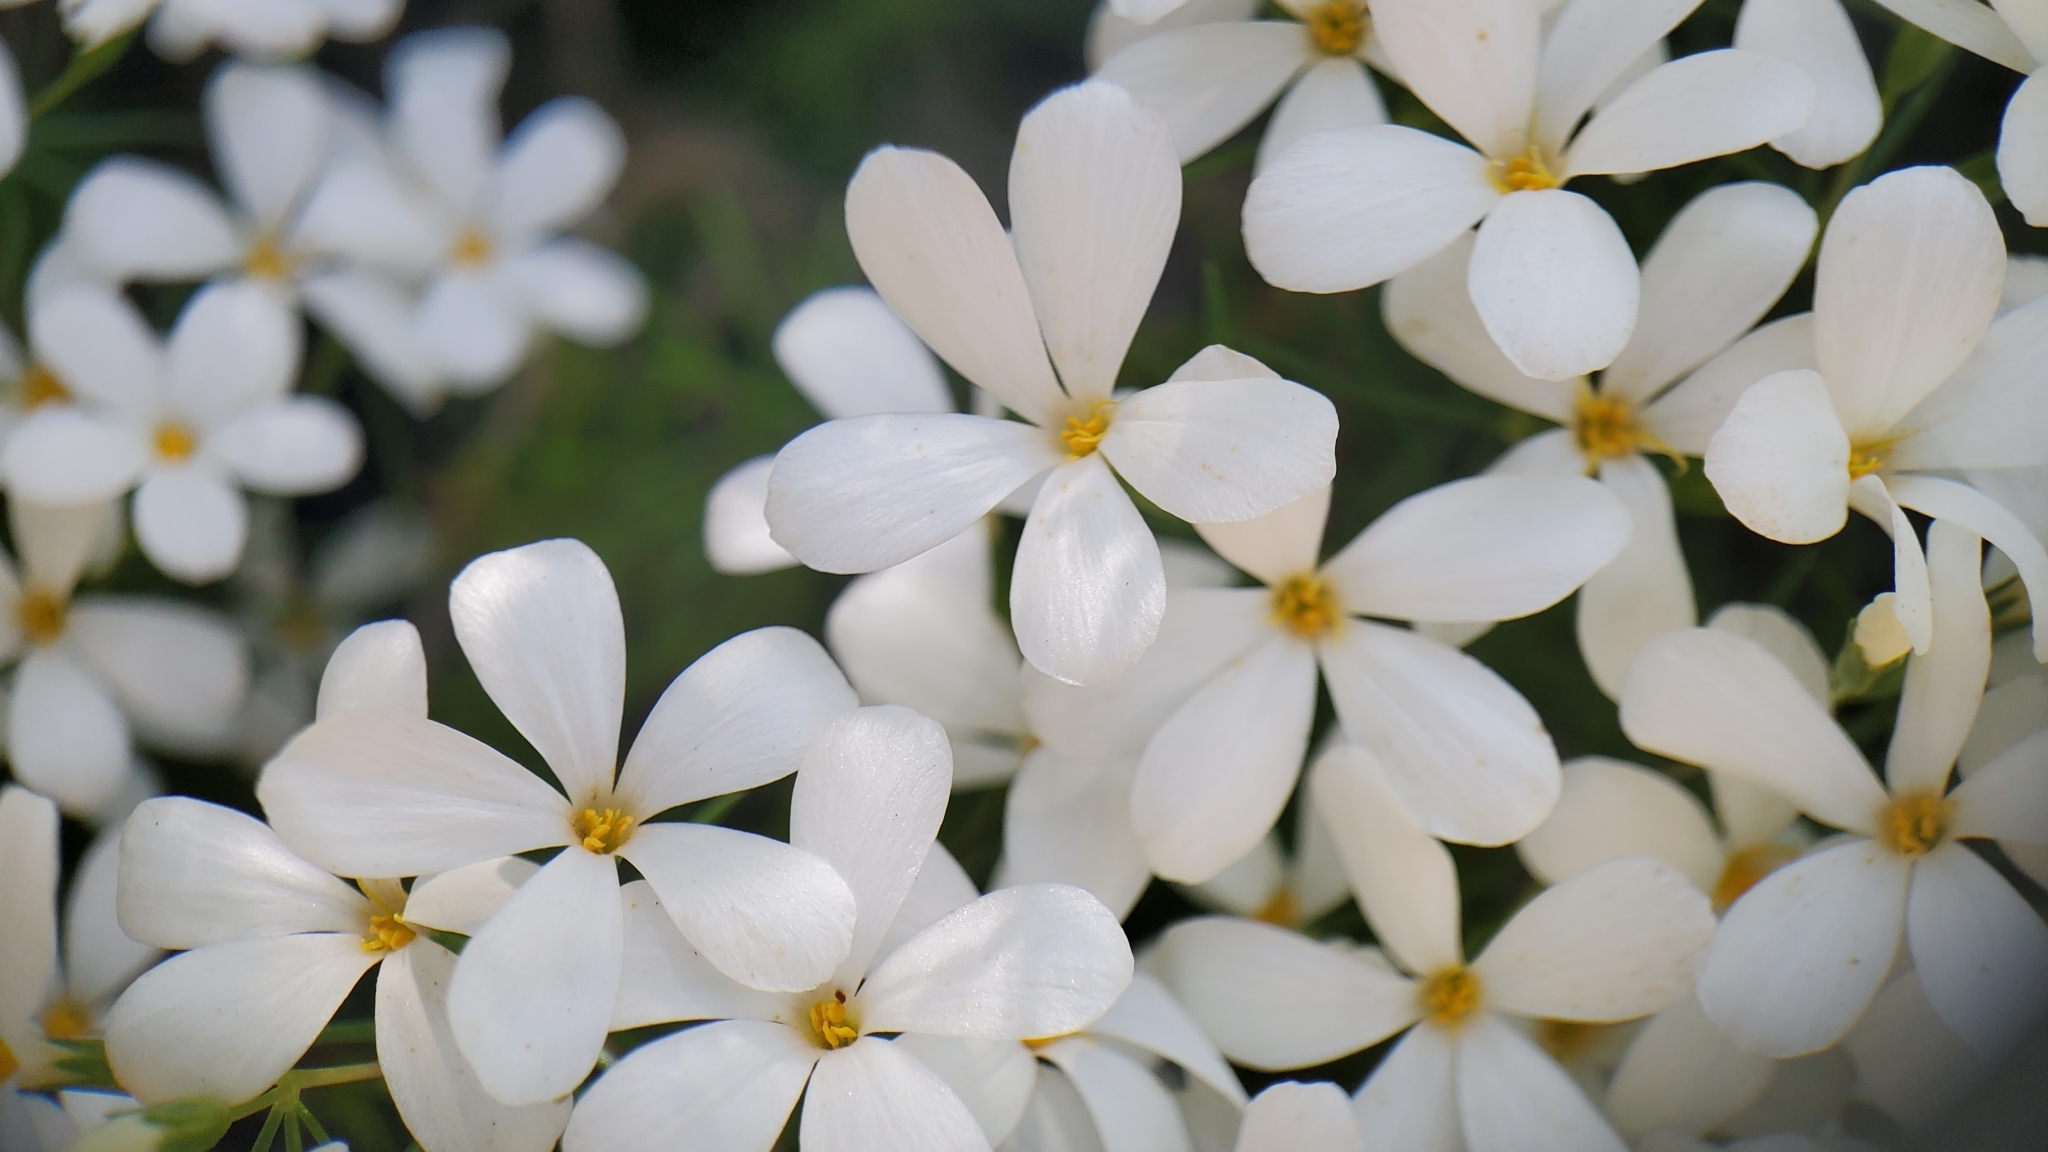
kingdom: Plantae
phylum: Tracheophyta
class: Magnoliopsida
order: Ericales
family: Polemoniaceae
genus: Leptosiphon
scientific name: Leptosiphon floribundum
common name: Many-flower linanthus
